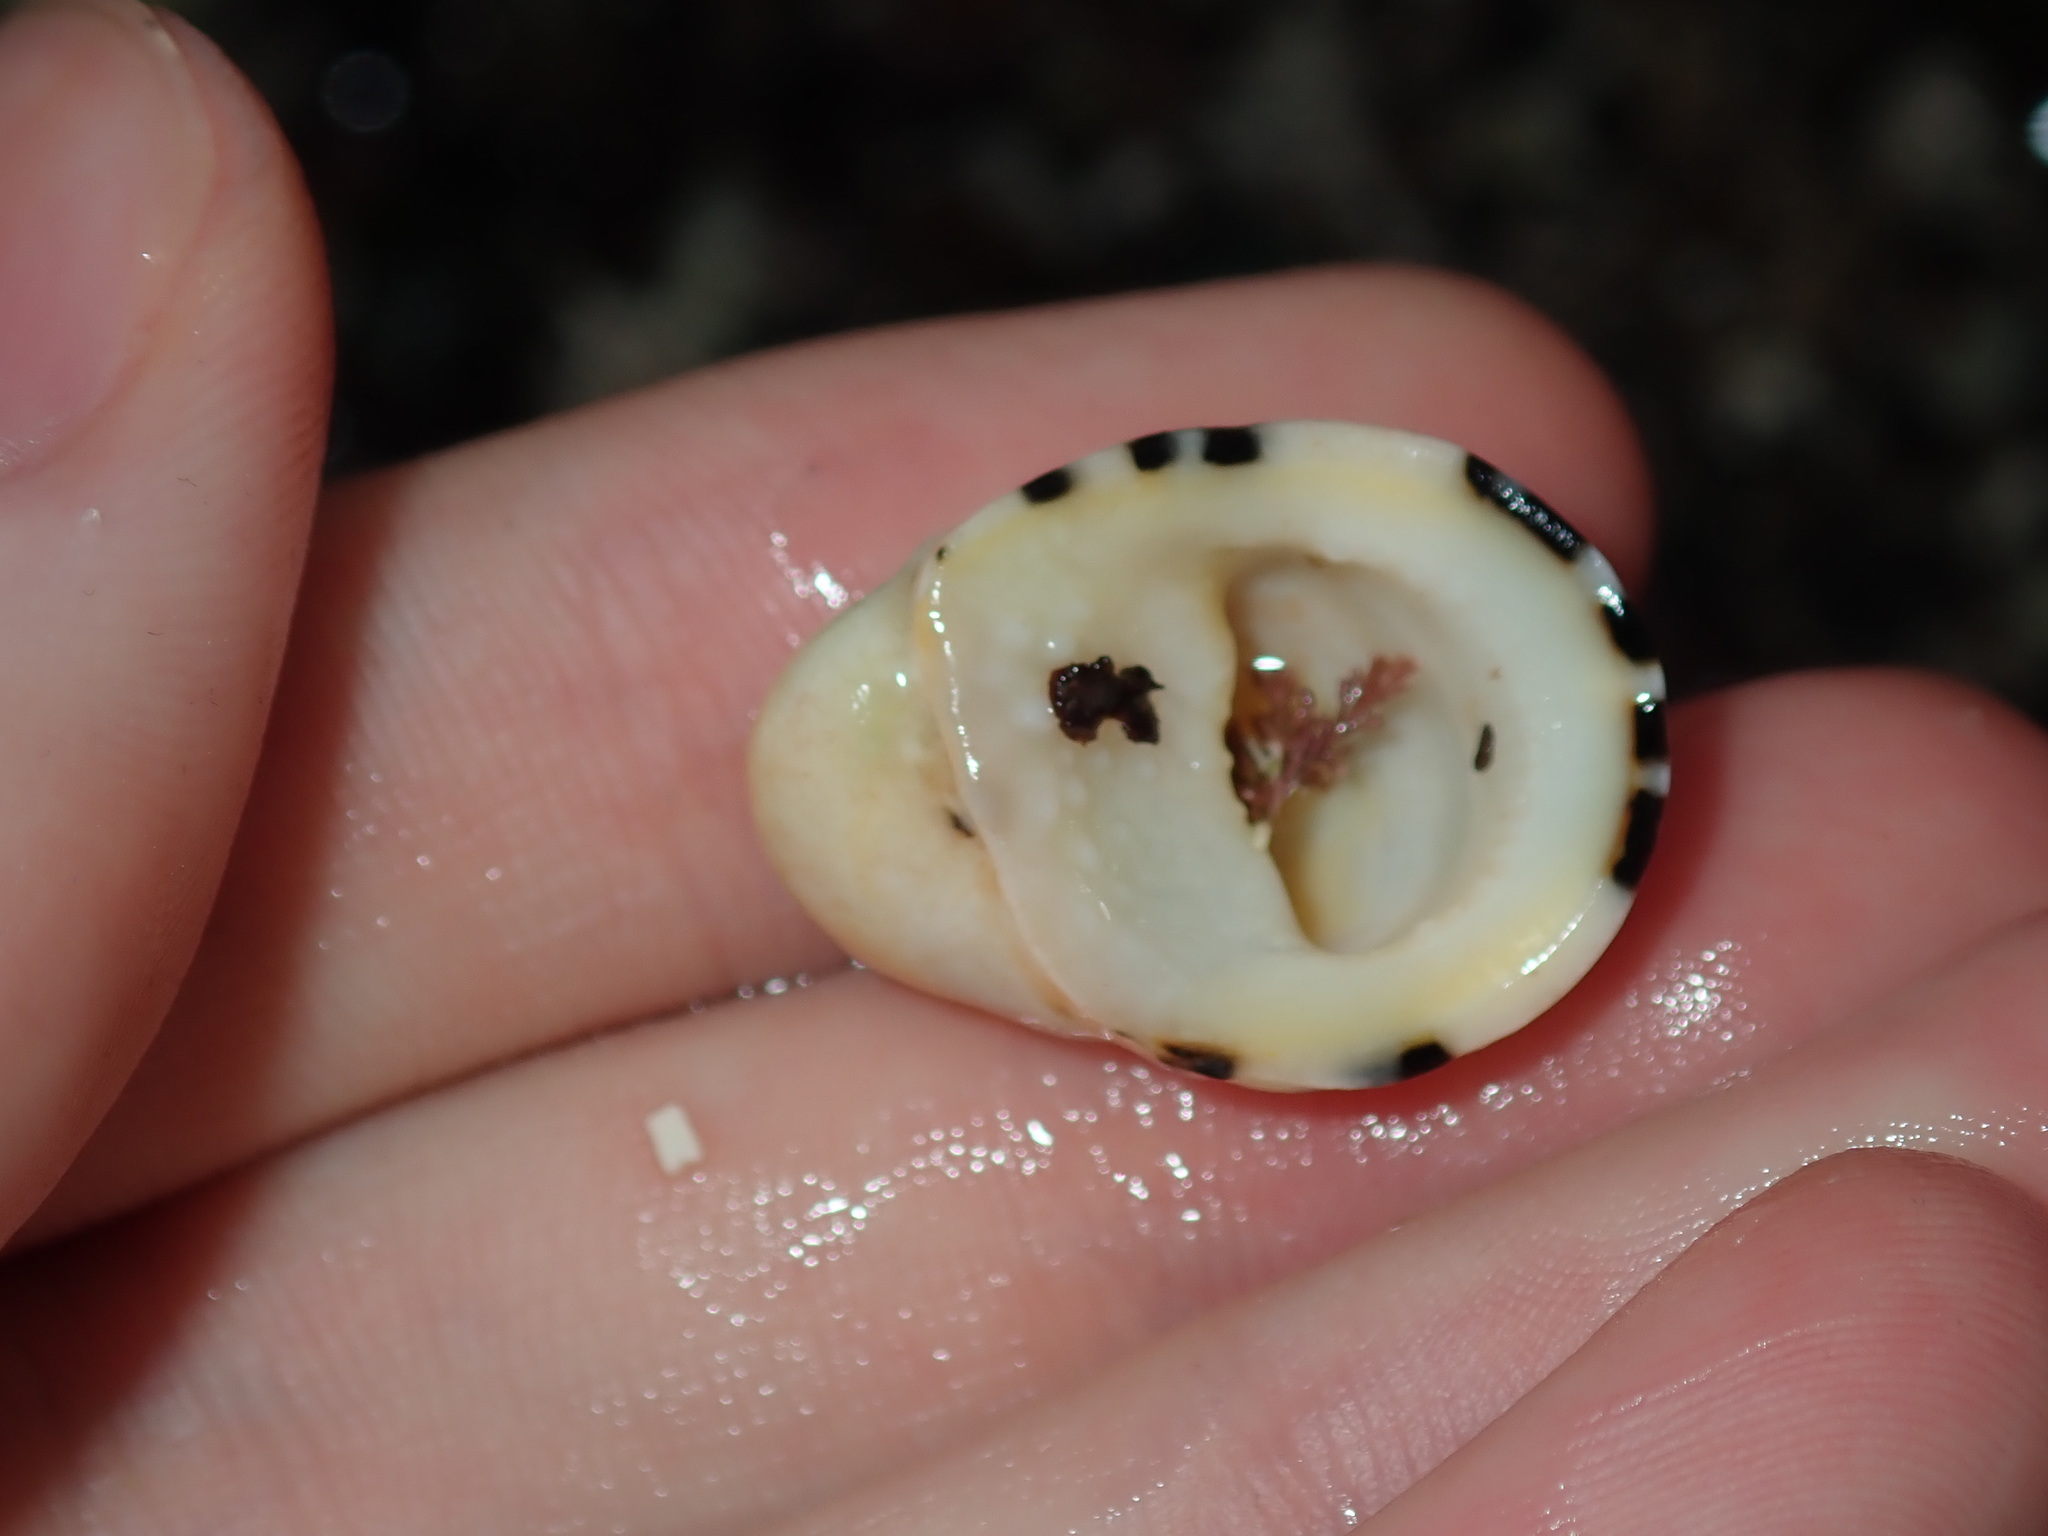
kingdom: Animalia
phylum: Mollusca
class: Gastropoda
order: Cycloneritida
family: Neritidae
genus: Nerita
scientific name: Nerita albicilla
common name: Blotched nerite
